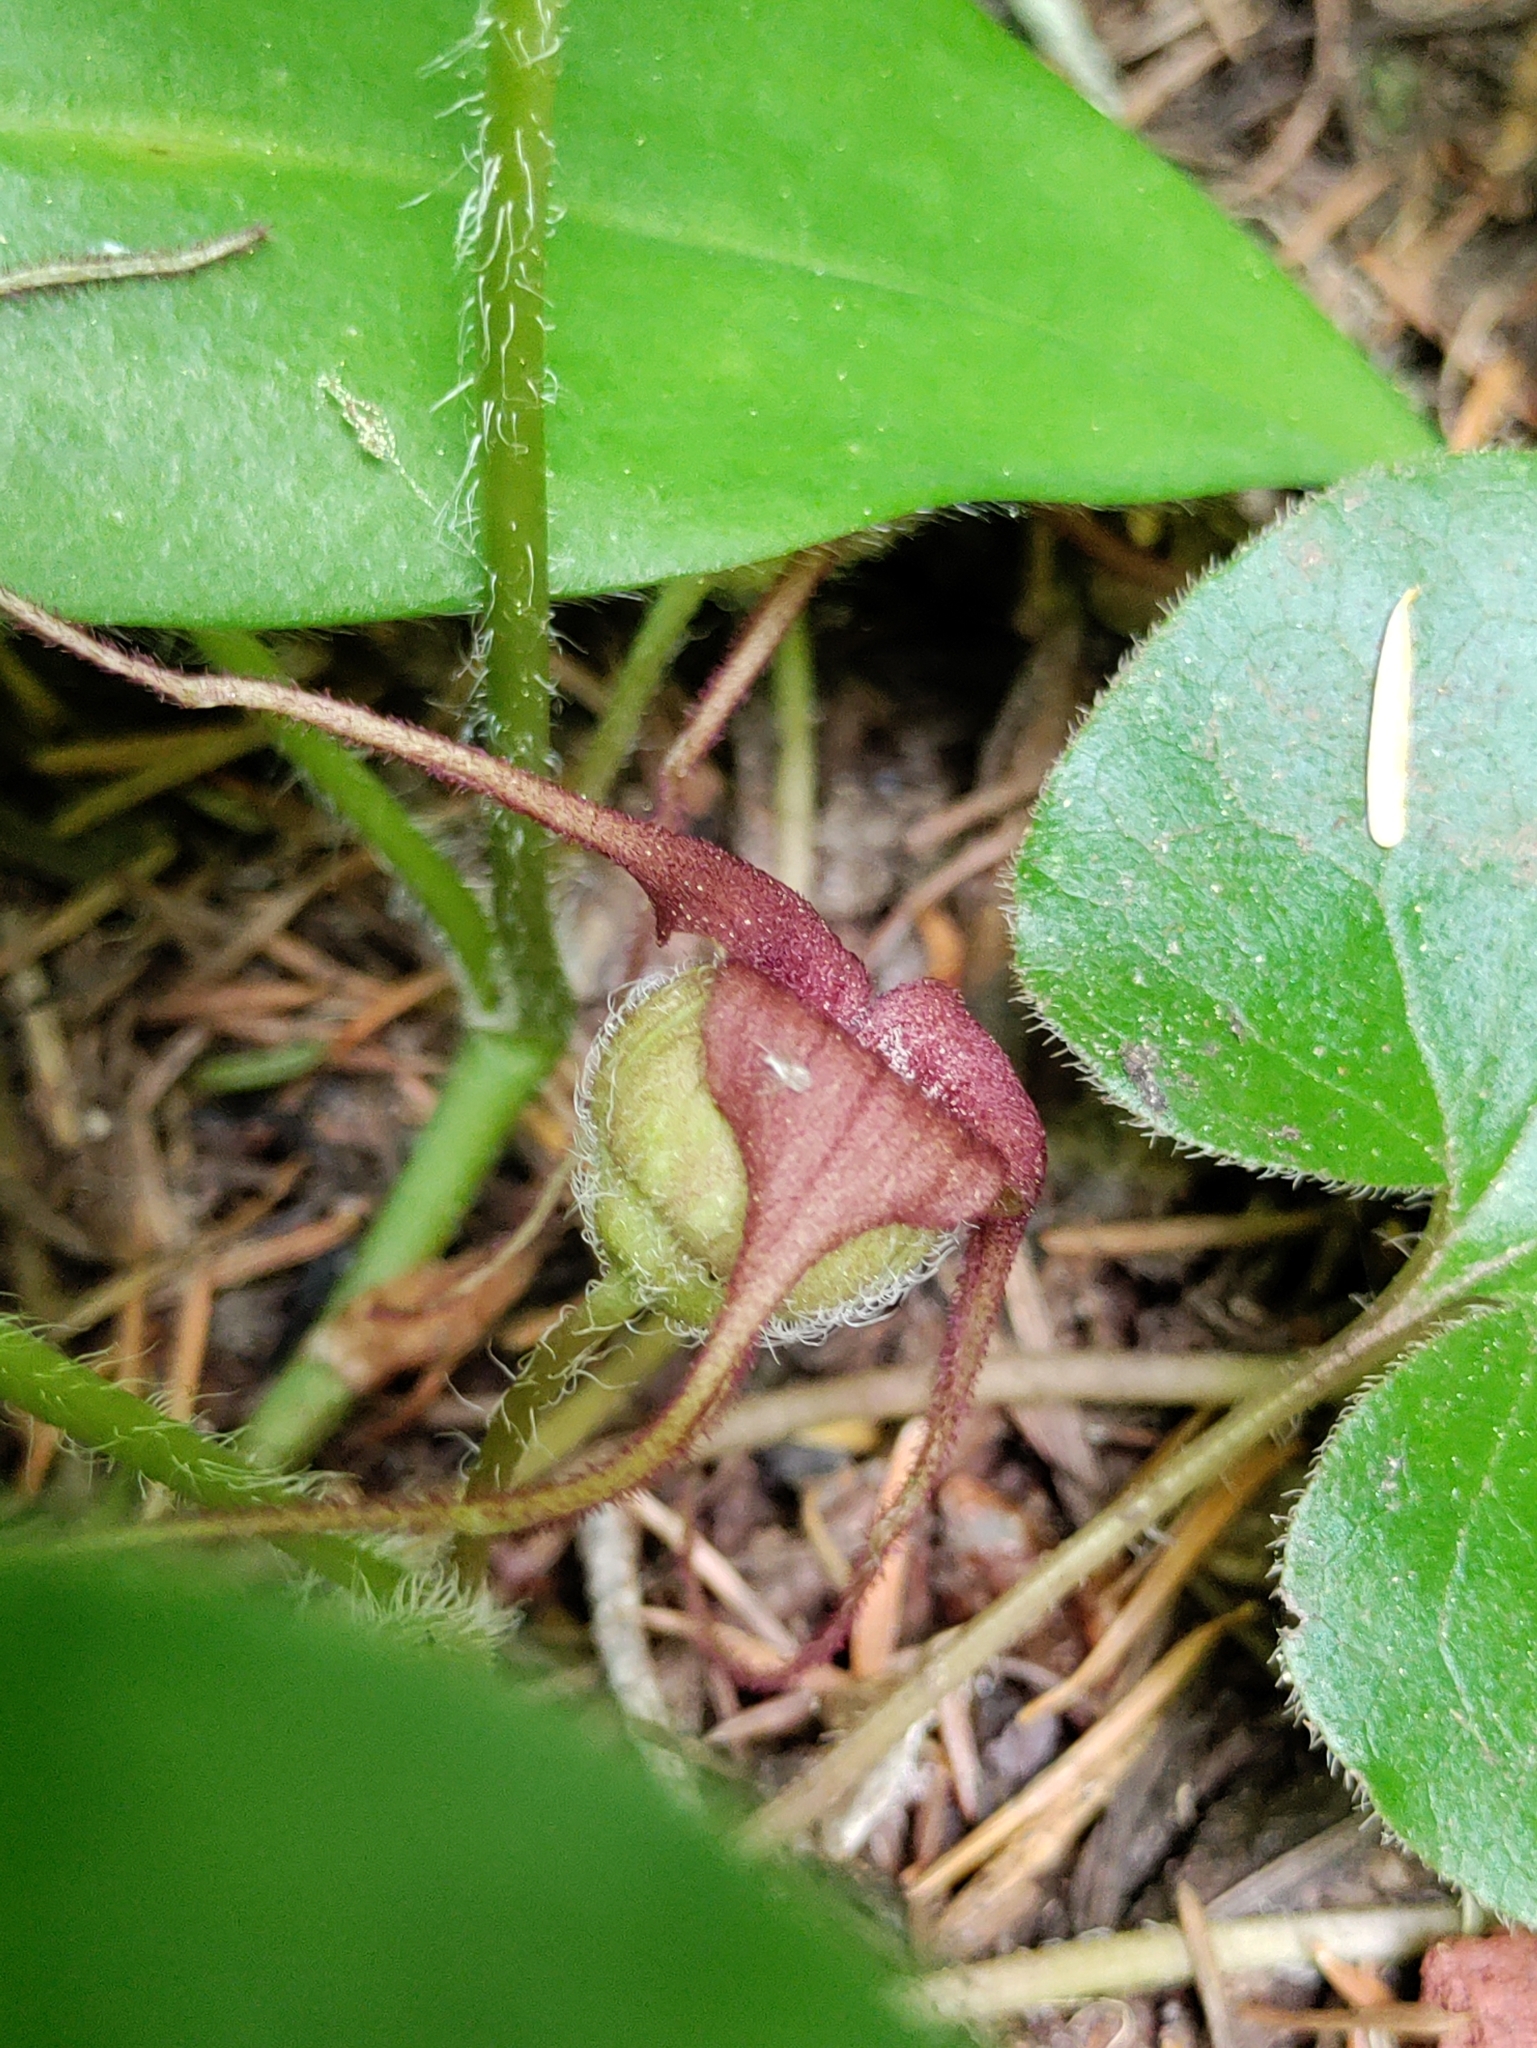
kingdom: Plantae
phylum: Tracheophyta
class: Magnoliopsida
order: Piperales
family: Aristolochiaceae
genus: Asarum
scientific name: Asarum caudatum
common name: Wild ginger
